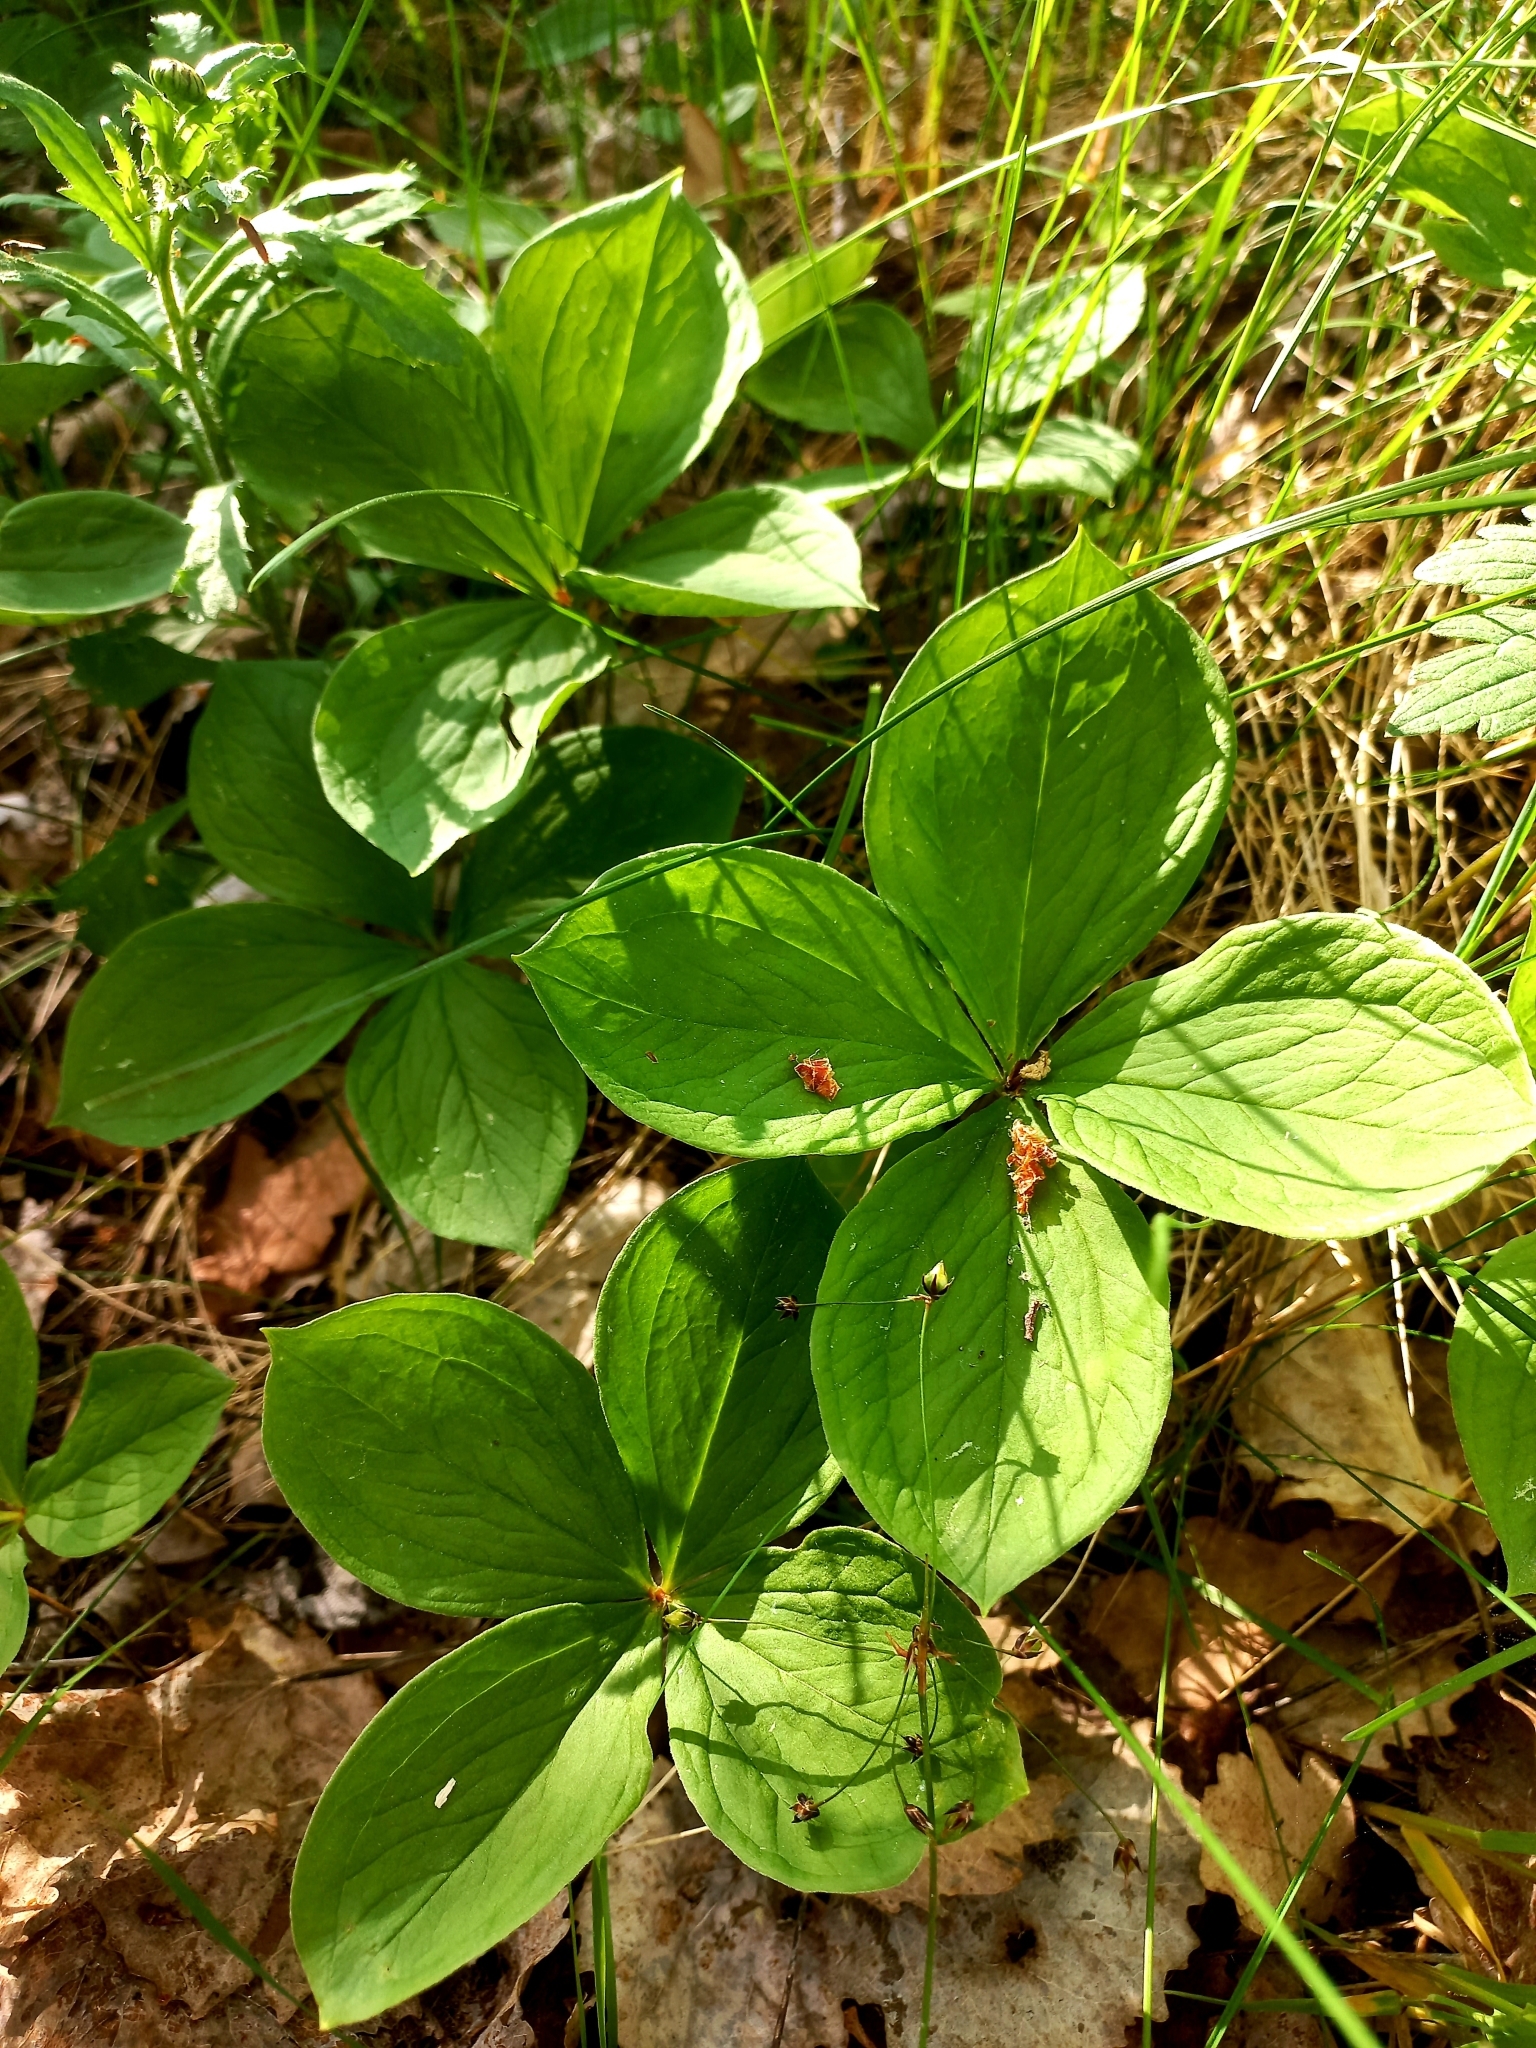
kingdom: Plantae
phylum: Tracheophyta
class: Liliopsida
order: Liliales
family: Melanthiaceae
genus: Paris
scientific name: Paris quadrifolia
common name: Herb-paris
